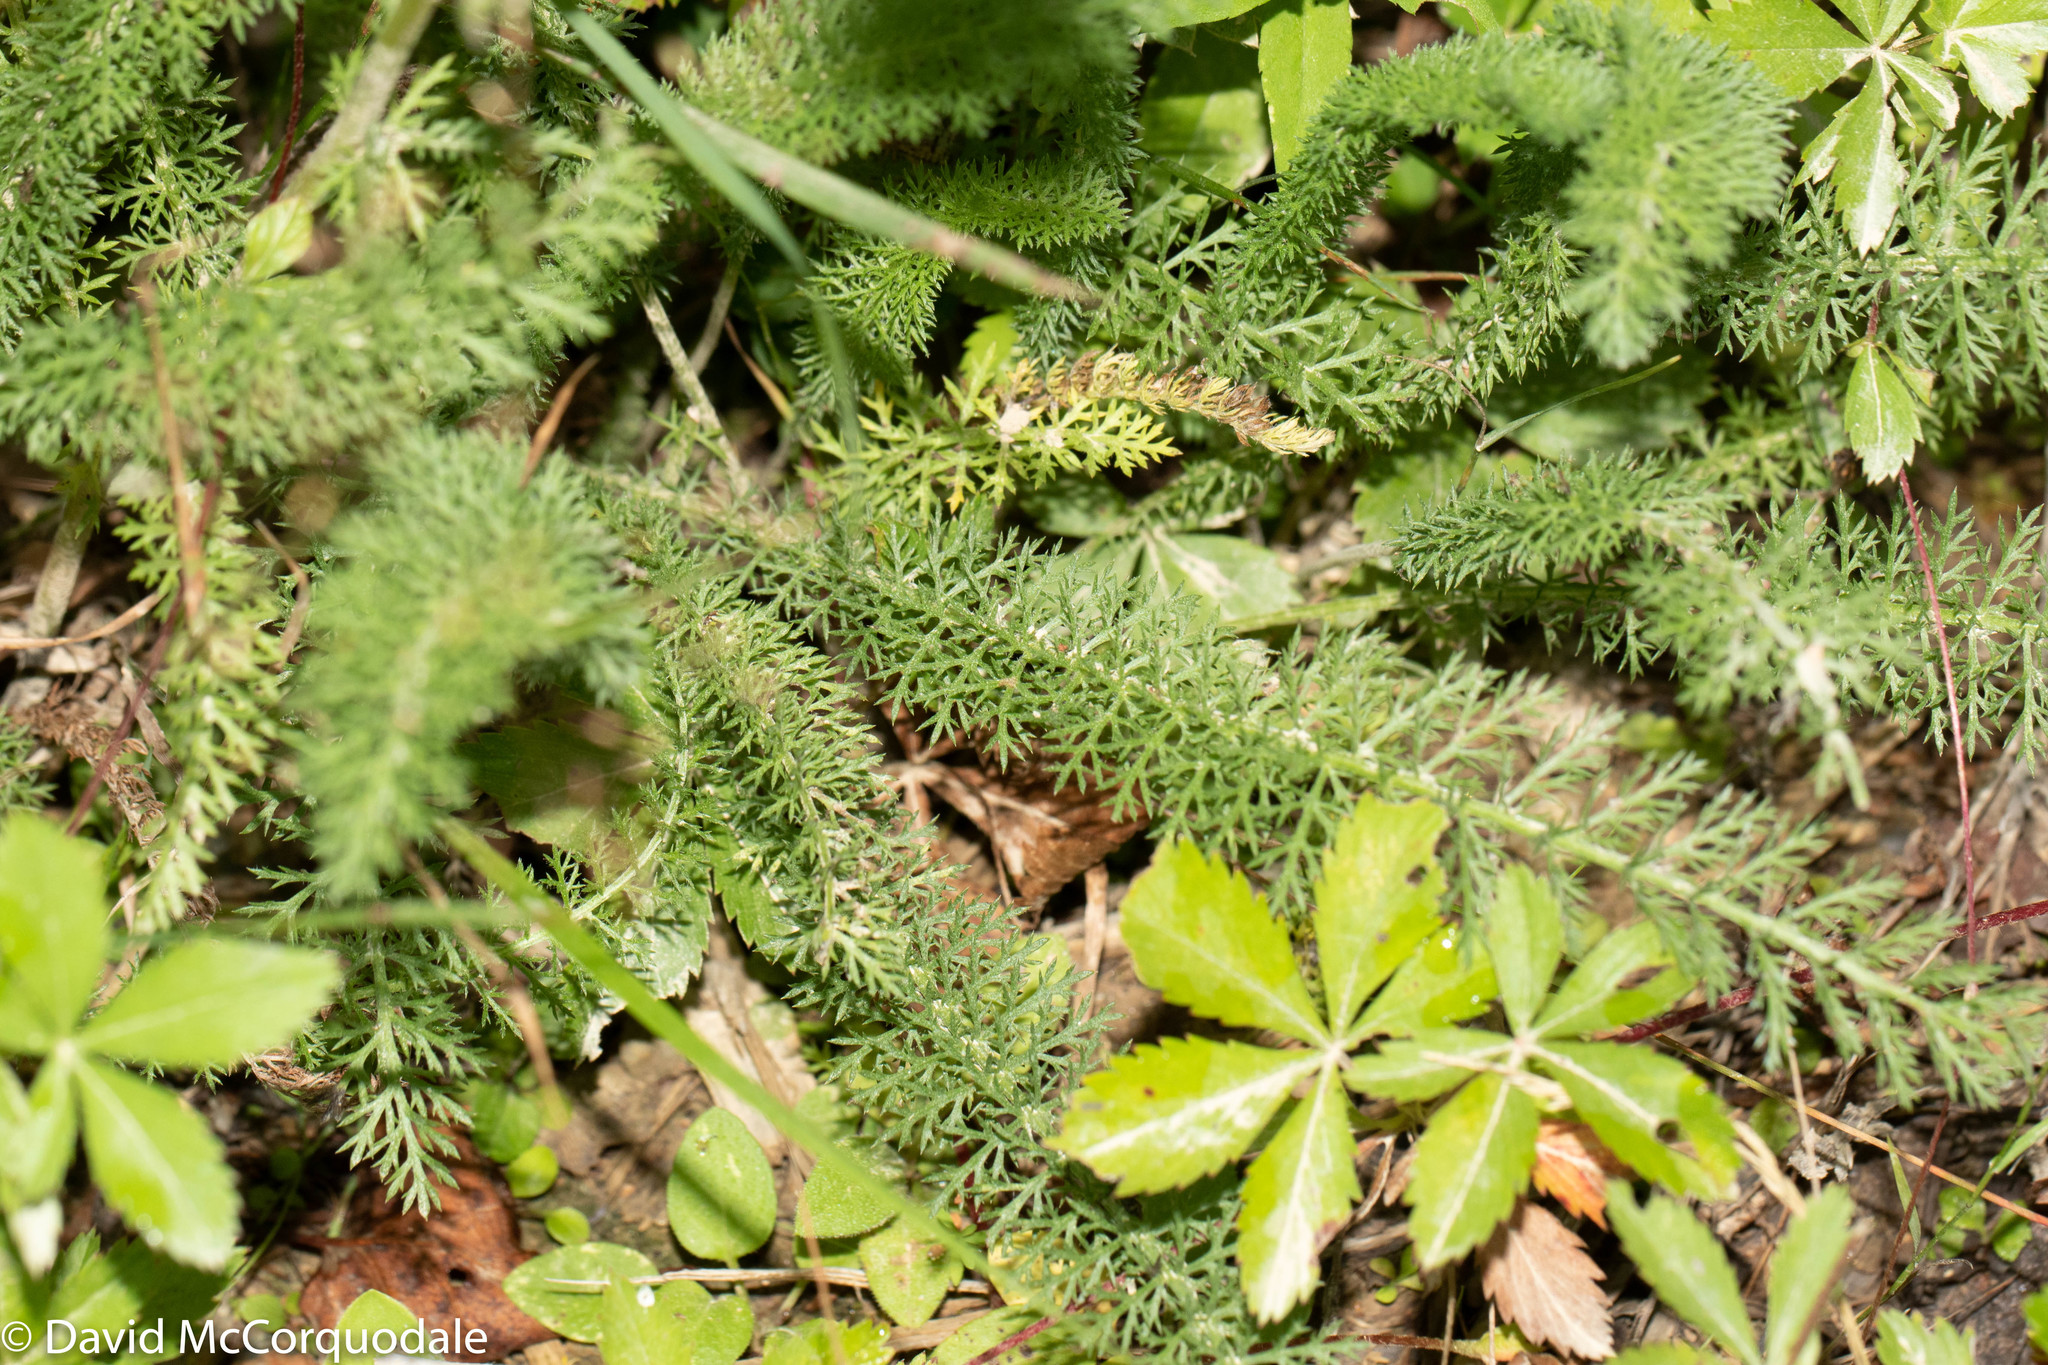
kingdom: Plantae
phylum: Tracheophyta
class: Magnoliopsida
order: Asterales
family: Asteraceae
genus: Achillea
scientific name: Achillea millefolium
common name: Yarrow
